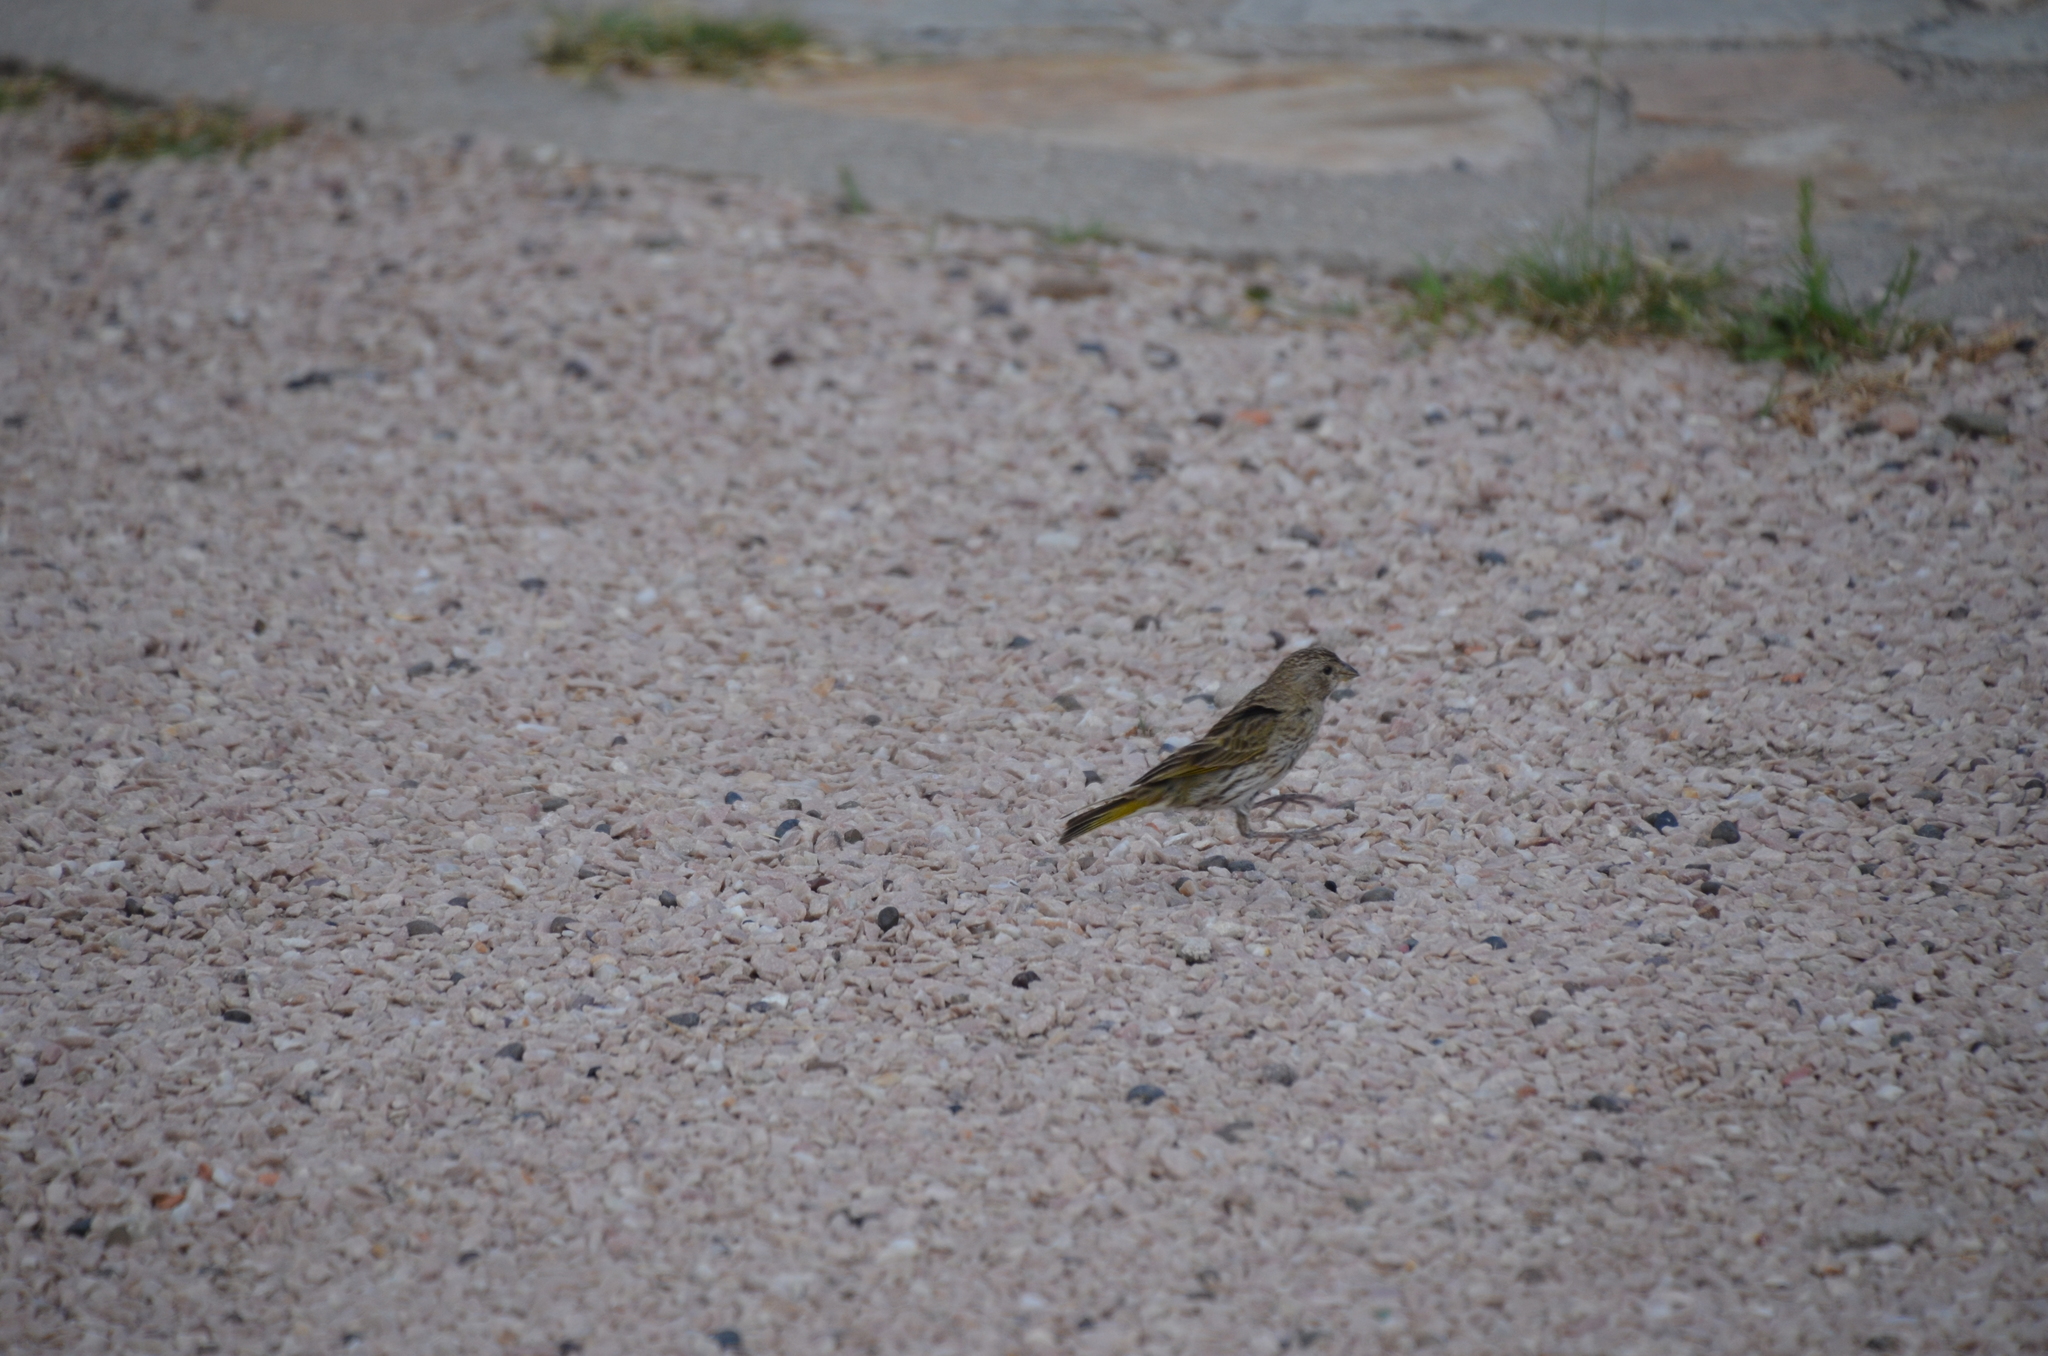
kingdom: Animalia
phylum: Chordata
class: Aves
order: Passeriformes
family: Thraupidae
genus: Sicalis
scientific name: Sicalis flaveola
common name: Saffron finch
